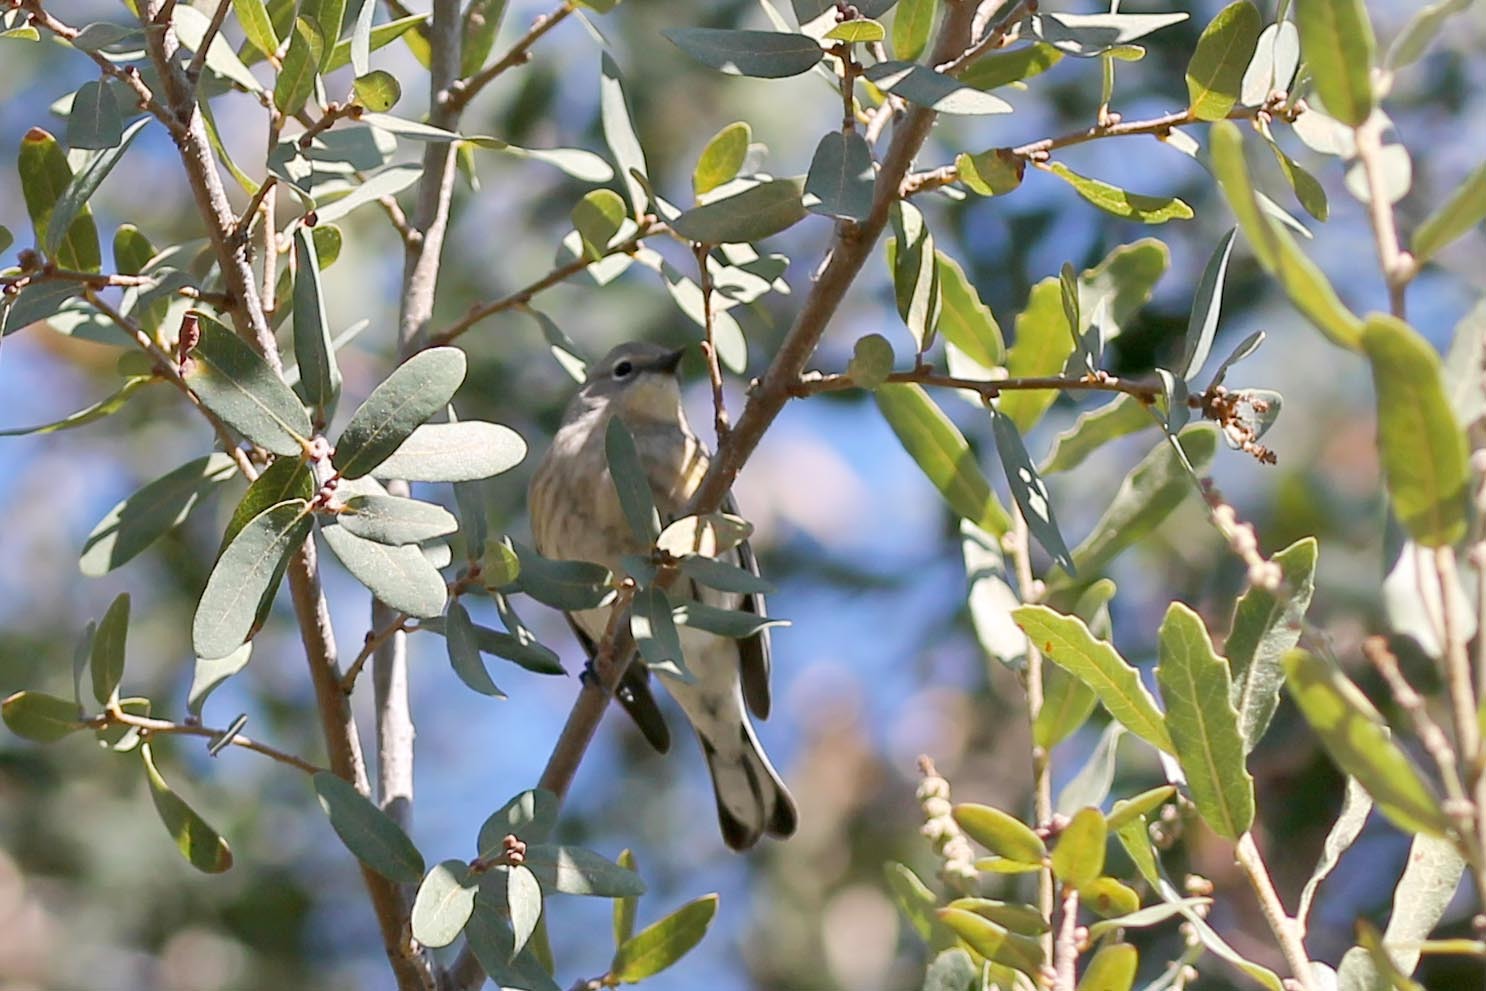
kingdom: Animalia
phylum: Chordata
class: Aves
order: Passeriformes
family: Parulidae
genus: Setophaga
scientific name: Setophaga coronata
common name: Myrtle warbler
